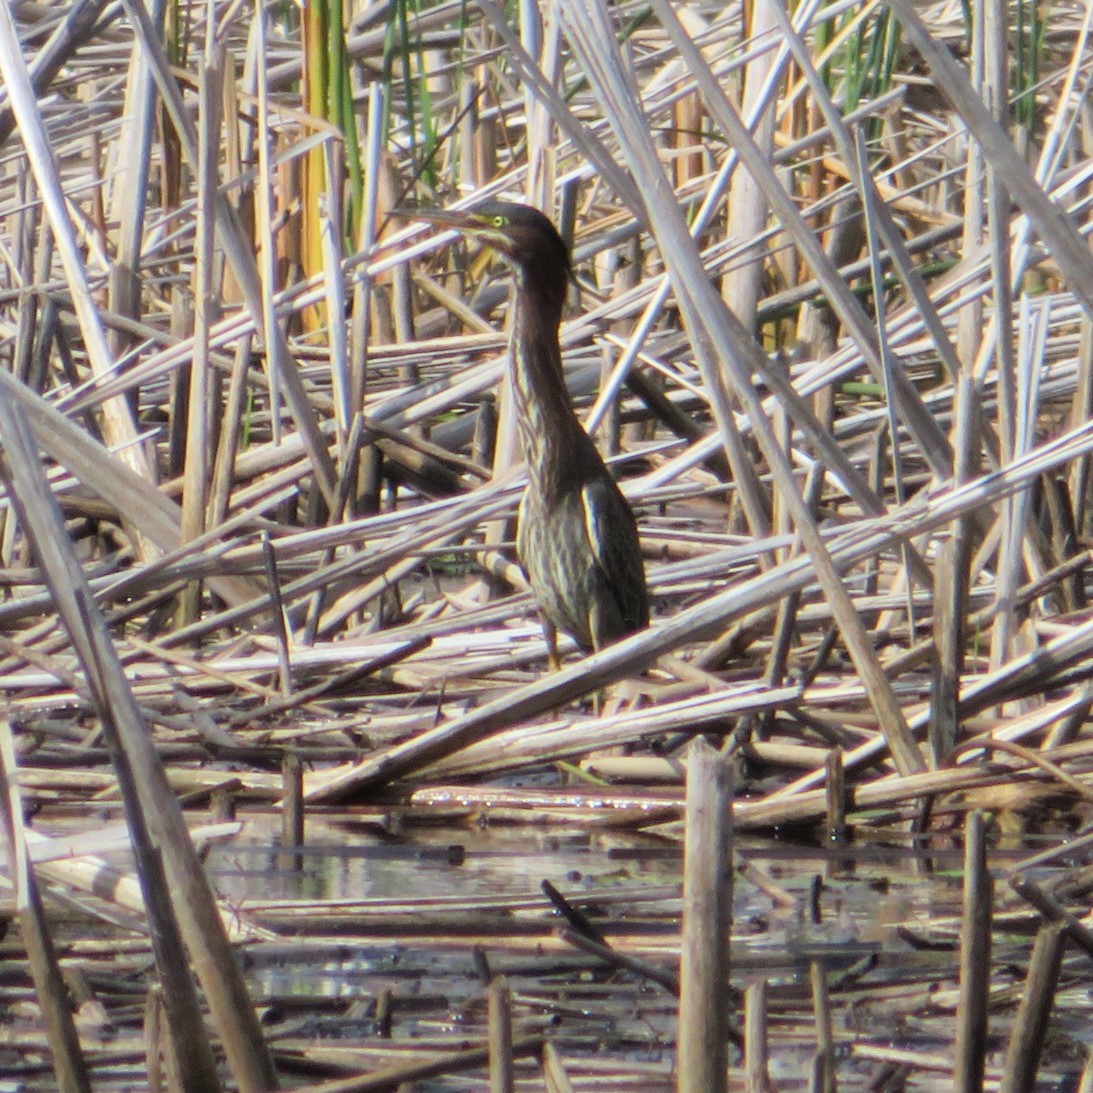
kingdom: Animalia
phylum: Chordata
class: Aves
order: Pelecaniformes
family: Ardeidae
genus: Butorides
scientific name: Butorides virescens
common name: Green heron
